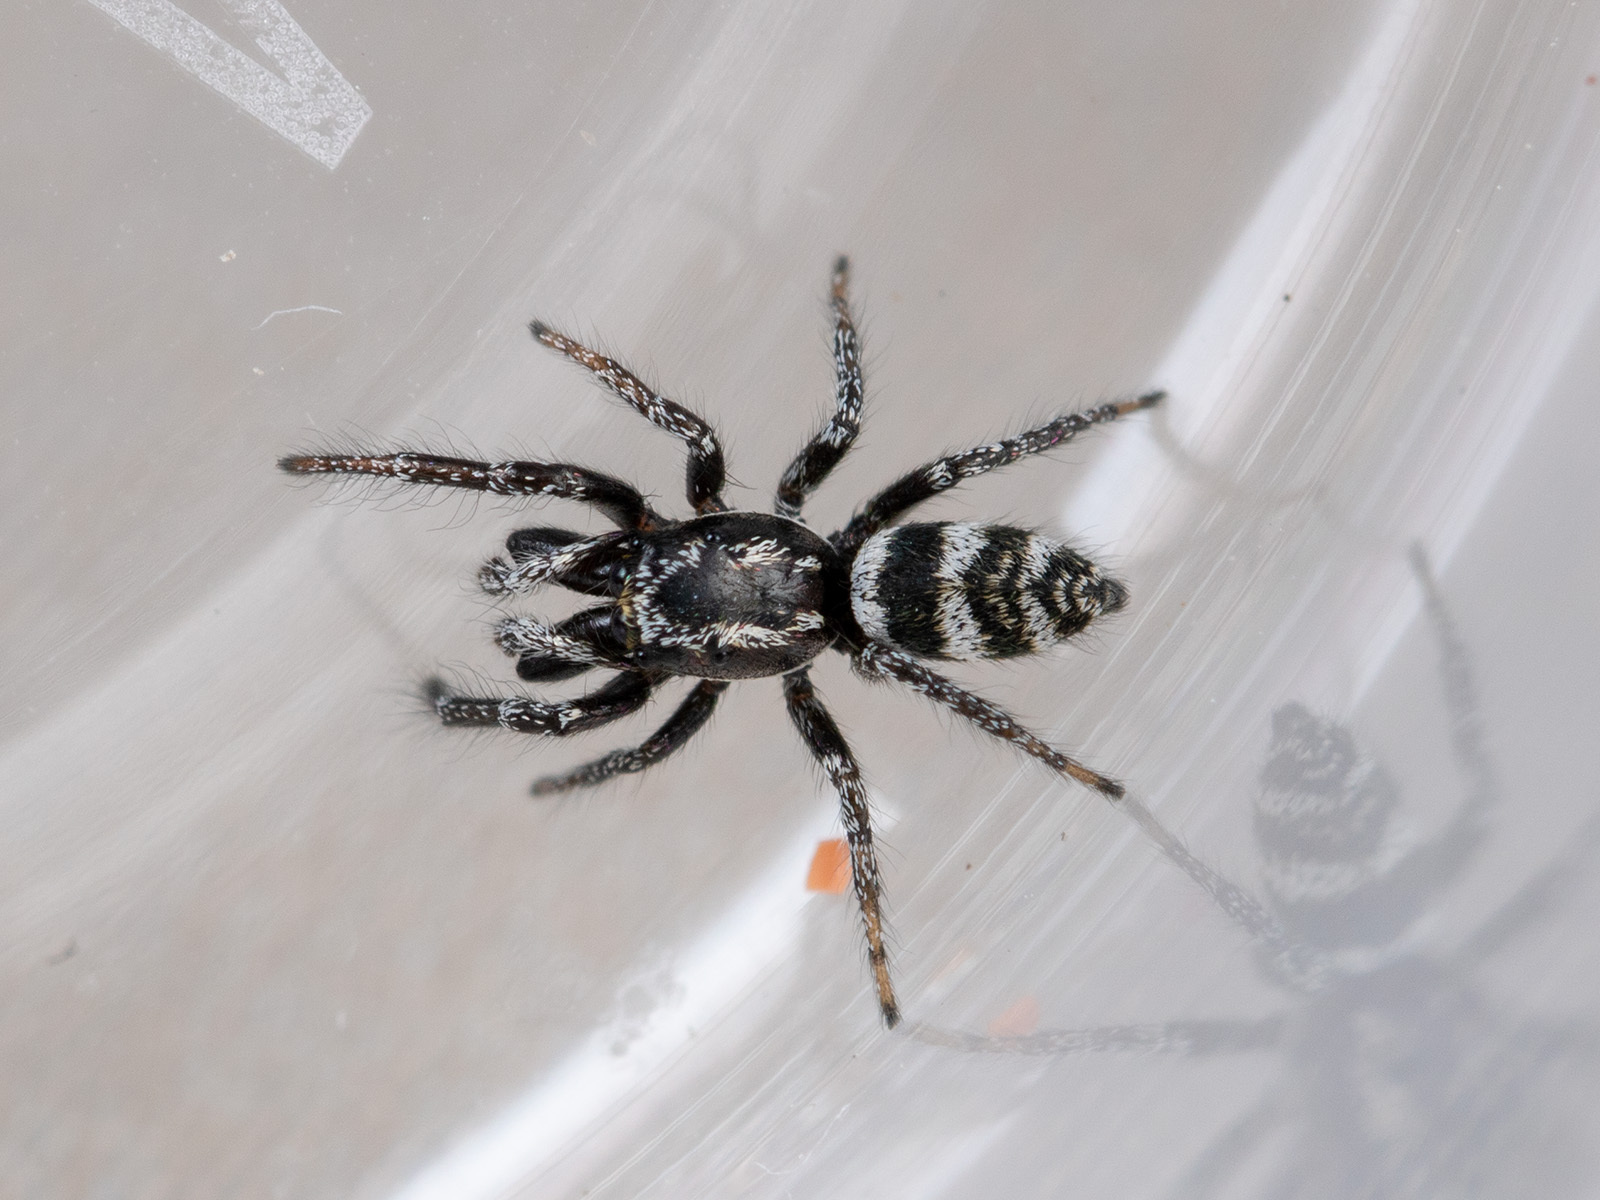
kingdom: Animalia
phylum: Arthropoda
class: Arachnida
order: Araneae
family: Salticidae
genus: Salticus
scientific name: Salticus tricinctus
